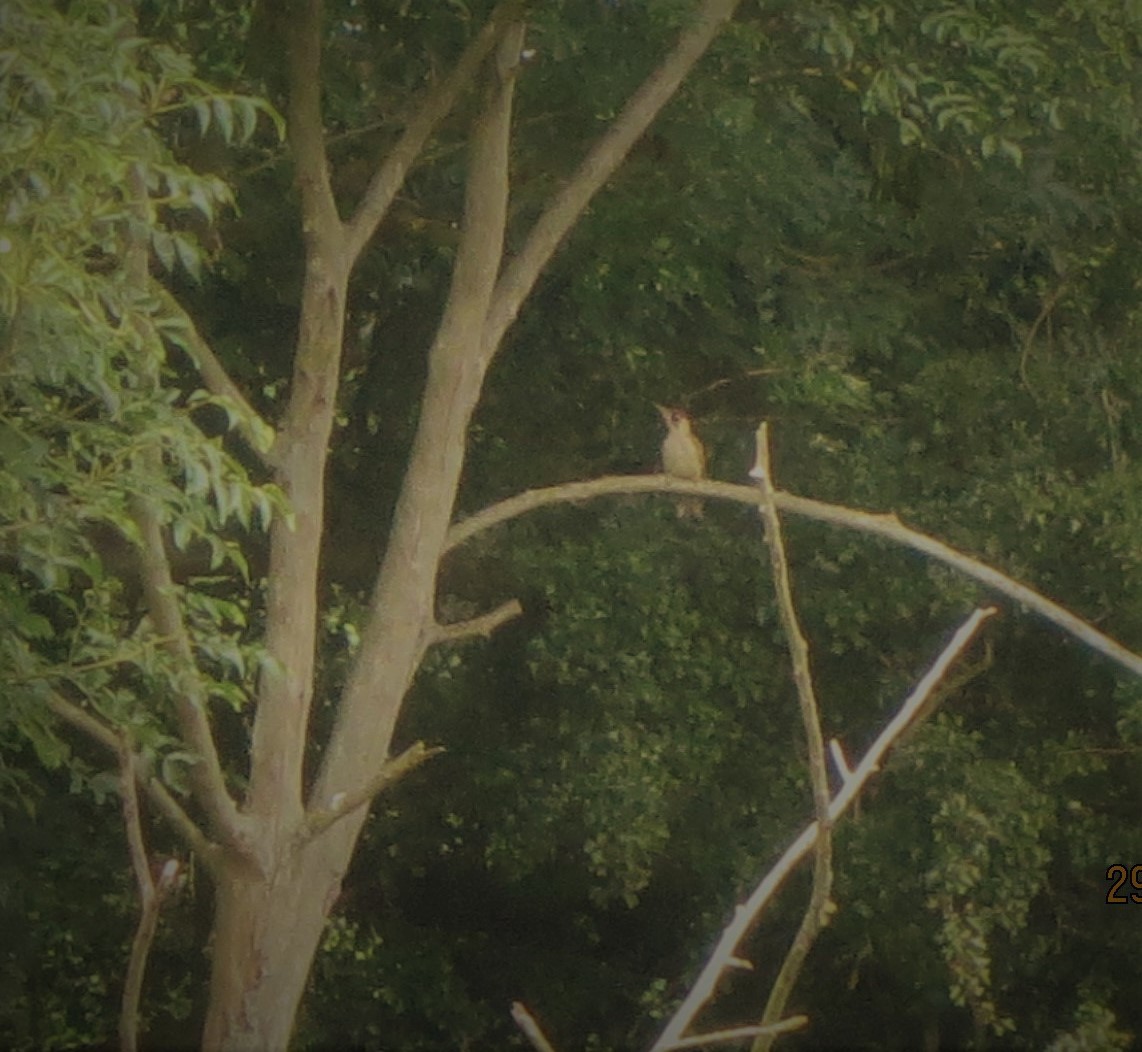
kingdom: Animalia
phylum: Chordata
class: Aves
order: Piciformes
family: Picidae
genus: Picus
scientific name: Picus viridis
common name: European green woodpecker
